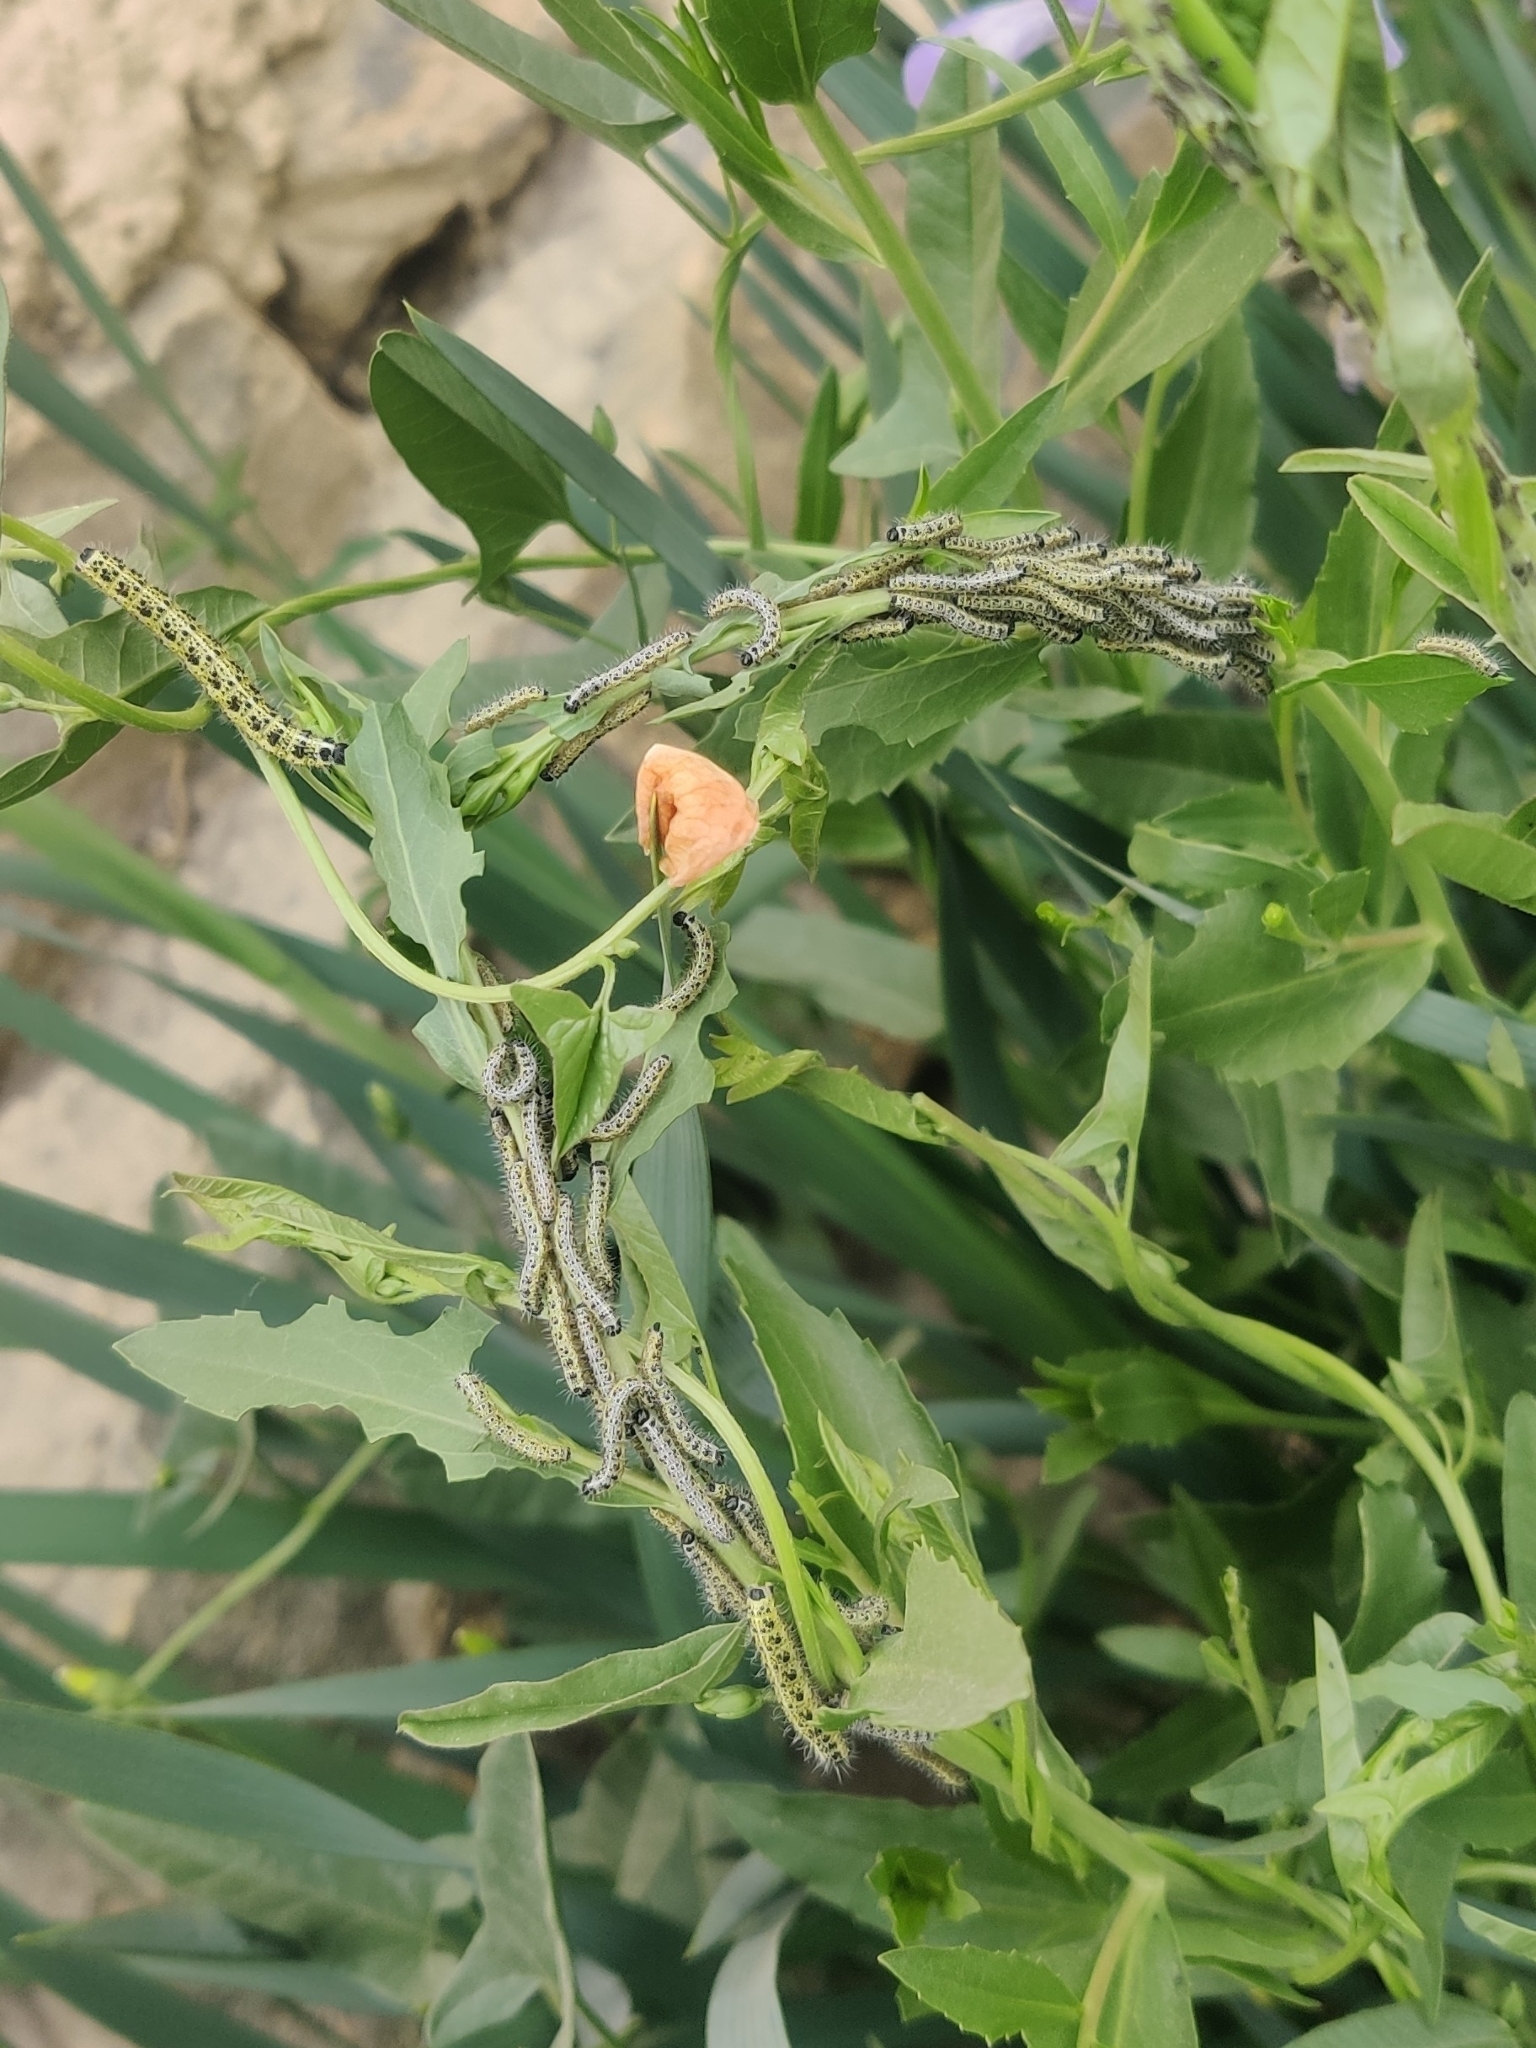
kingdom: Animalia
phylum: Arthropoda
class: Insecta
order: Lepidoptera
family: Pieridae
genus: Pieris
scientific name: Pieris brassicae
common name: Large white
